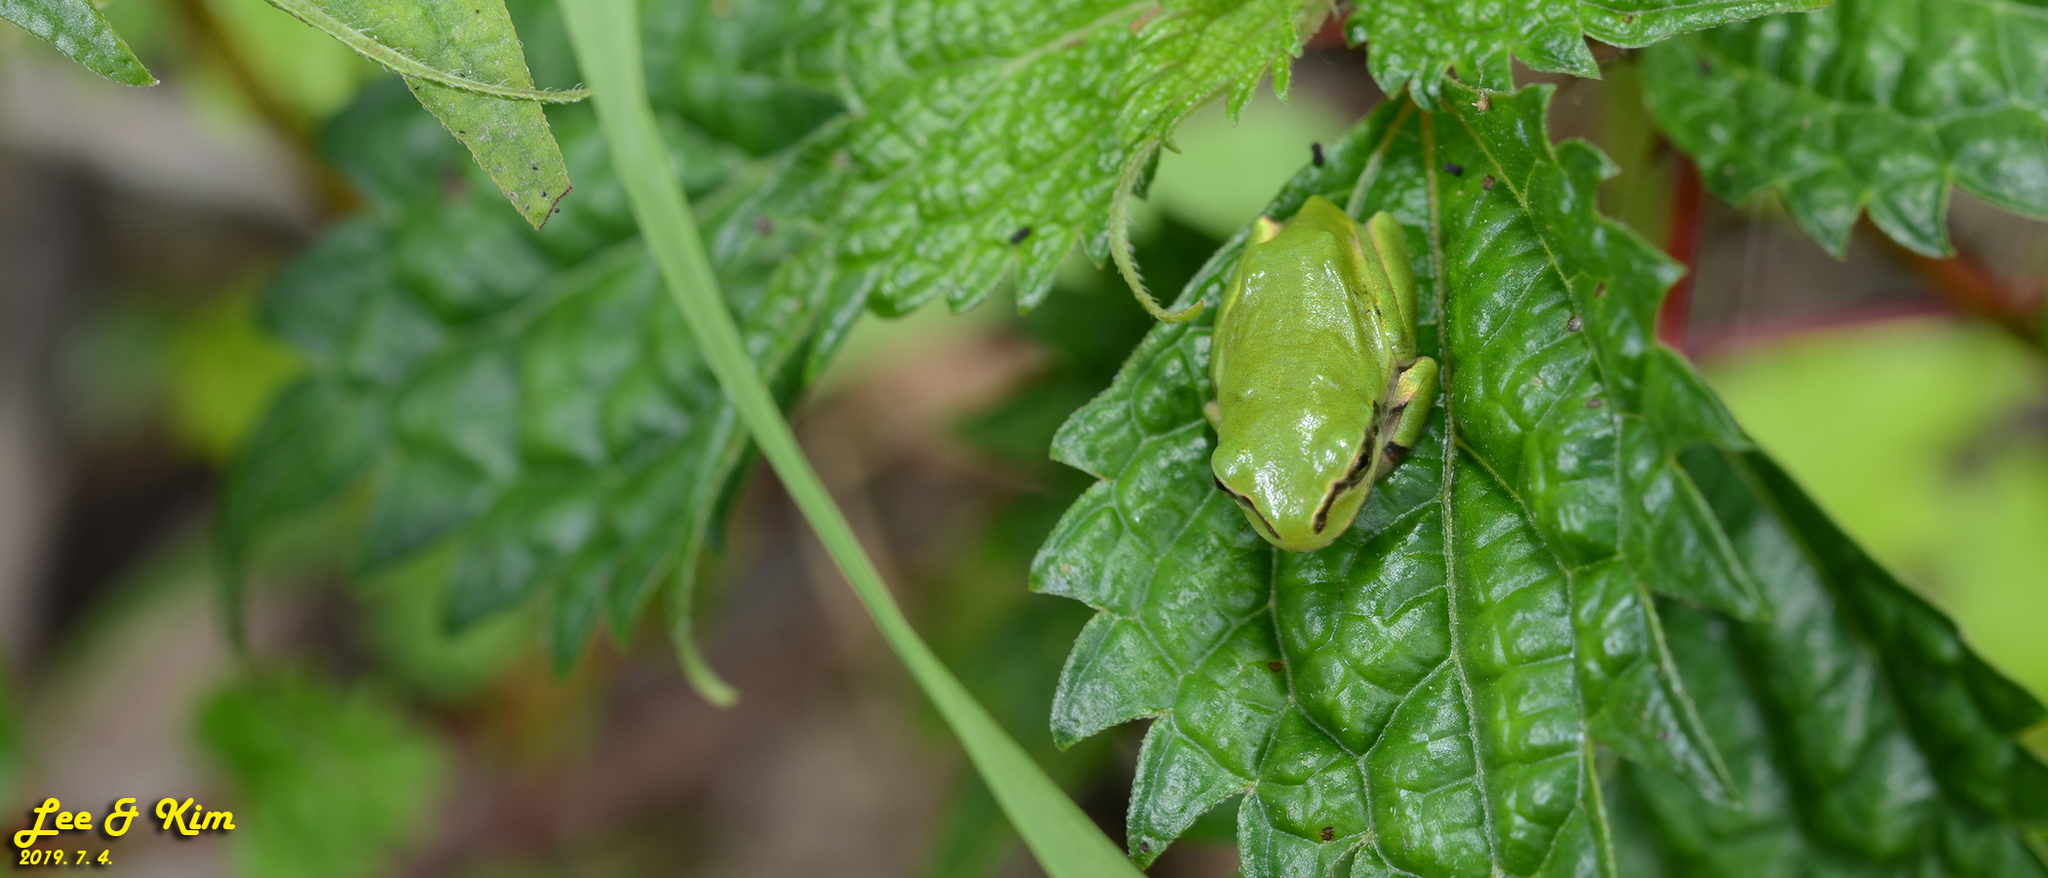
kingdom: Animalia
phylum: Chordata
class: Amphibia
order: Anura
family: Hylidae
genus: Dryophytes
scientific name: Dryophytes japonicus
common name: Japanese treefrog
